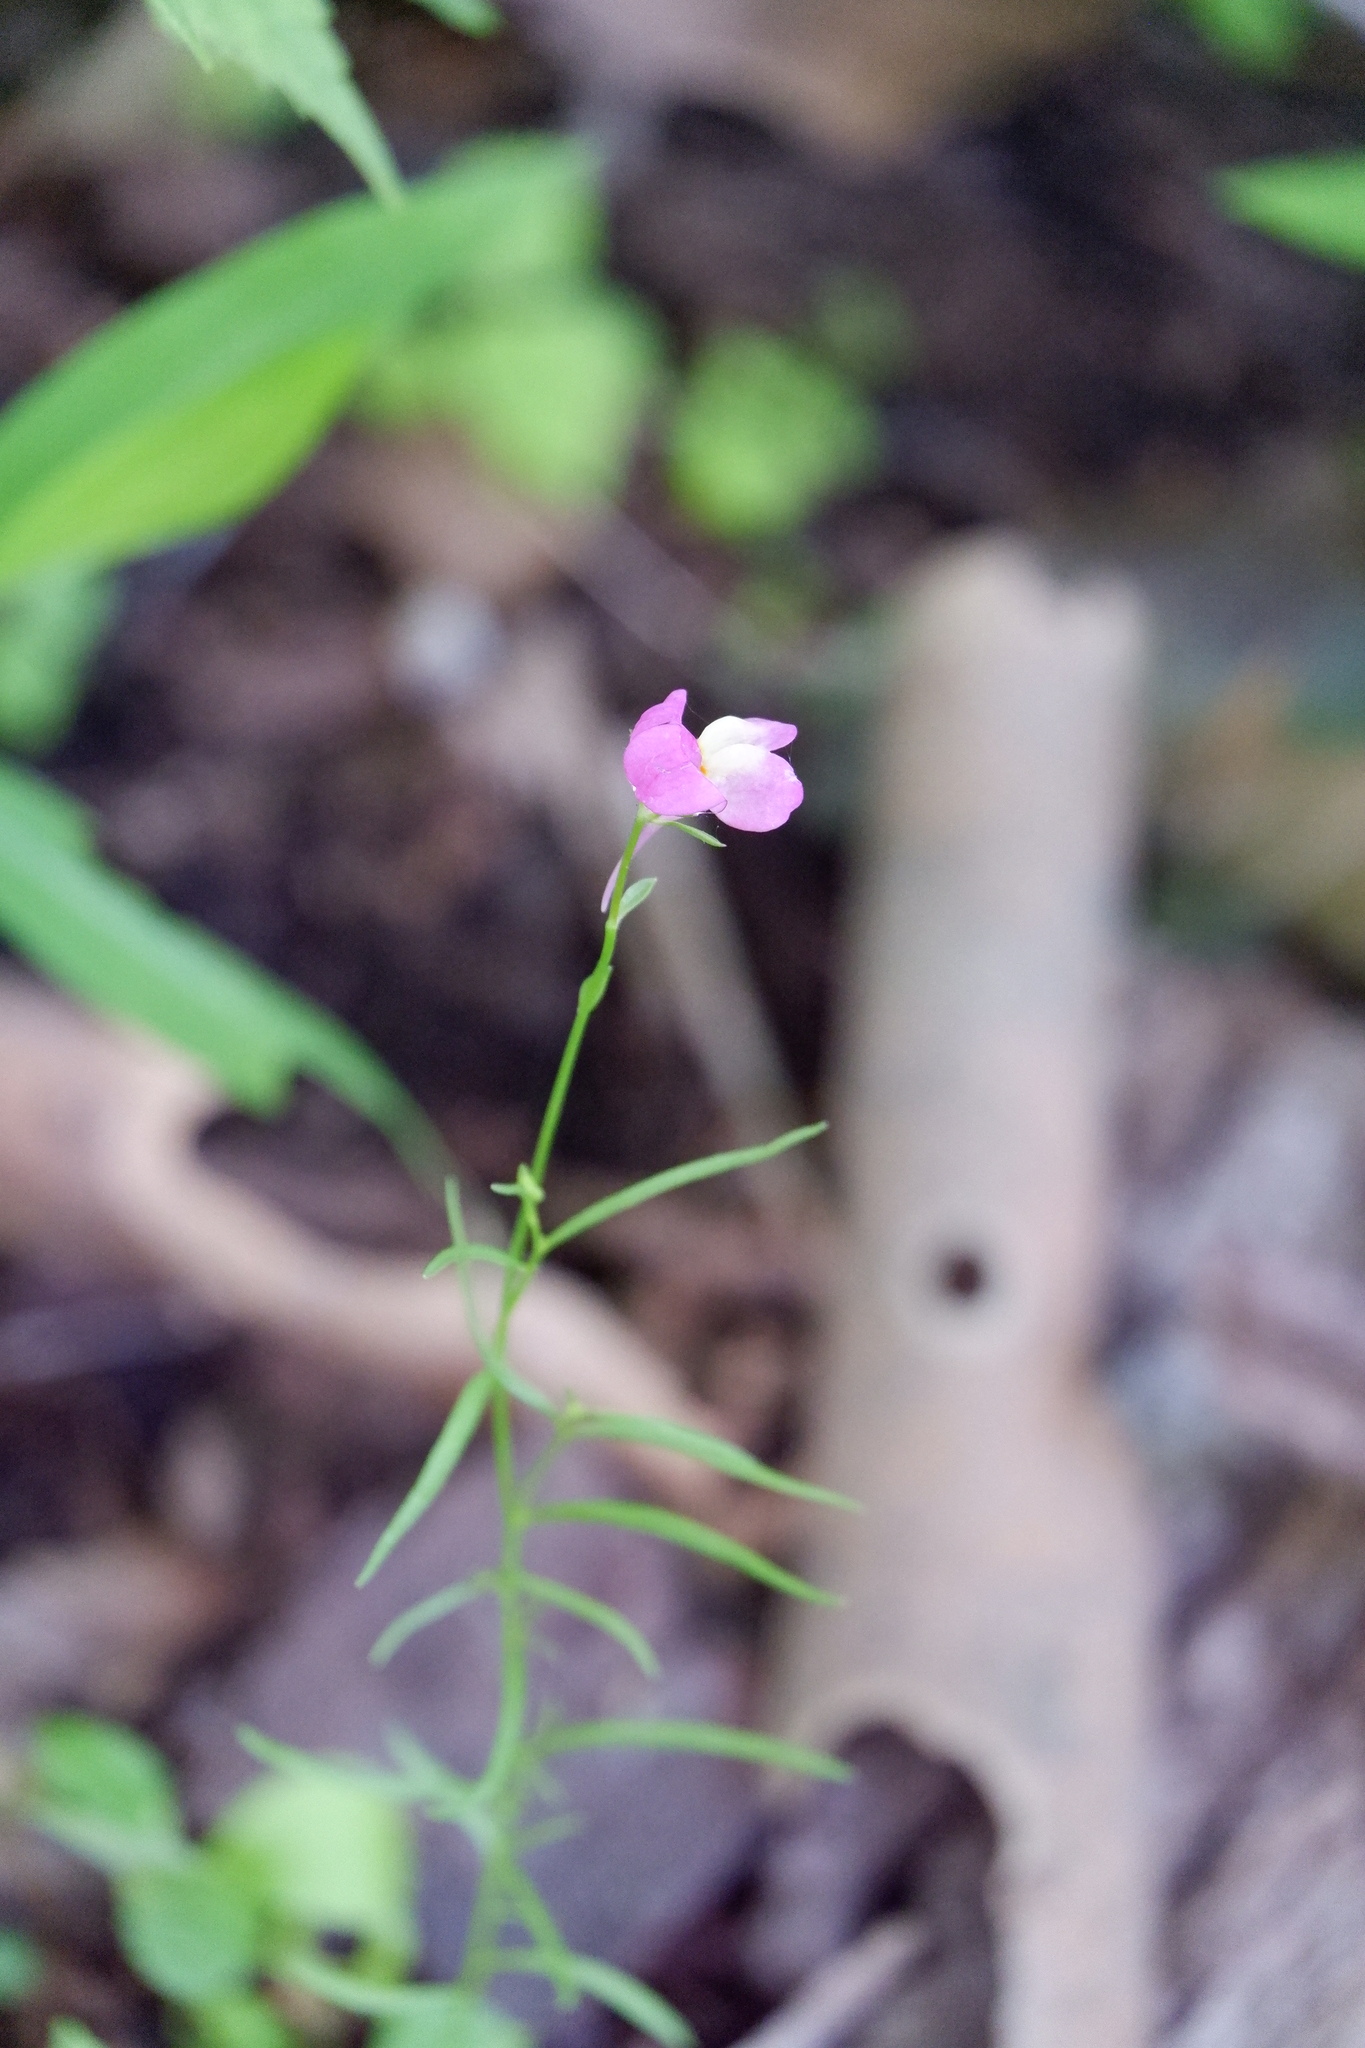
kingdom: Plantae
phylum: Tracheophyta
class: Magnoliopsida
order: Lamiales
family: Plantaginaceae
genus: Linaria
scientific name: Linaria maroccana
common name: Moroccan toadflax
